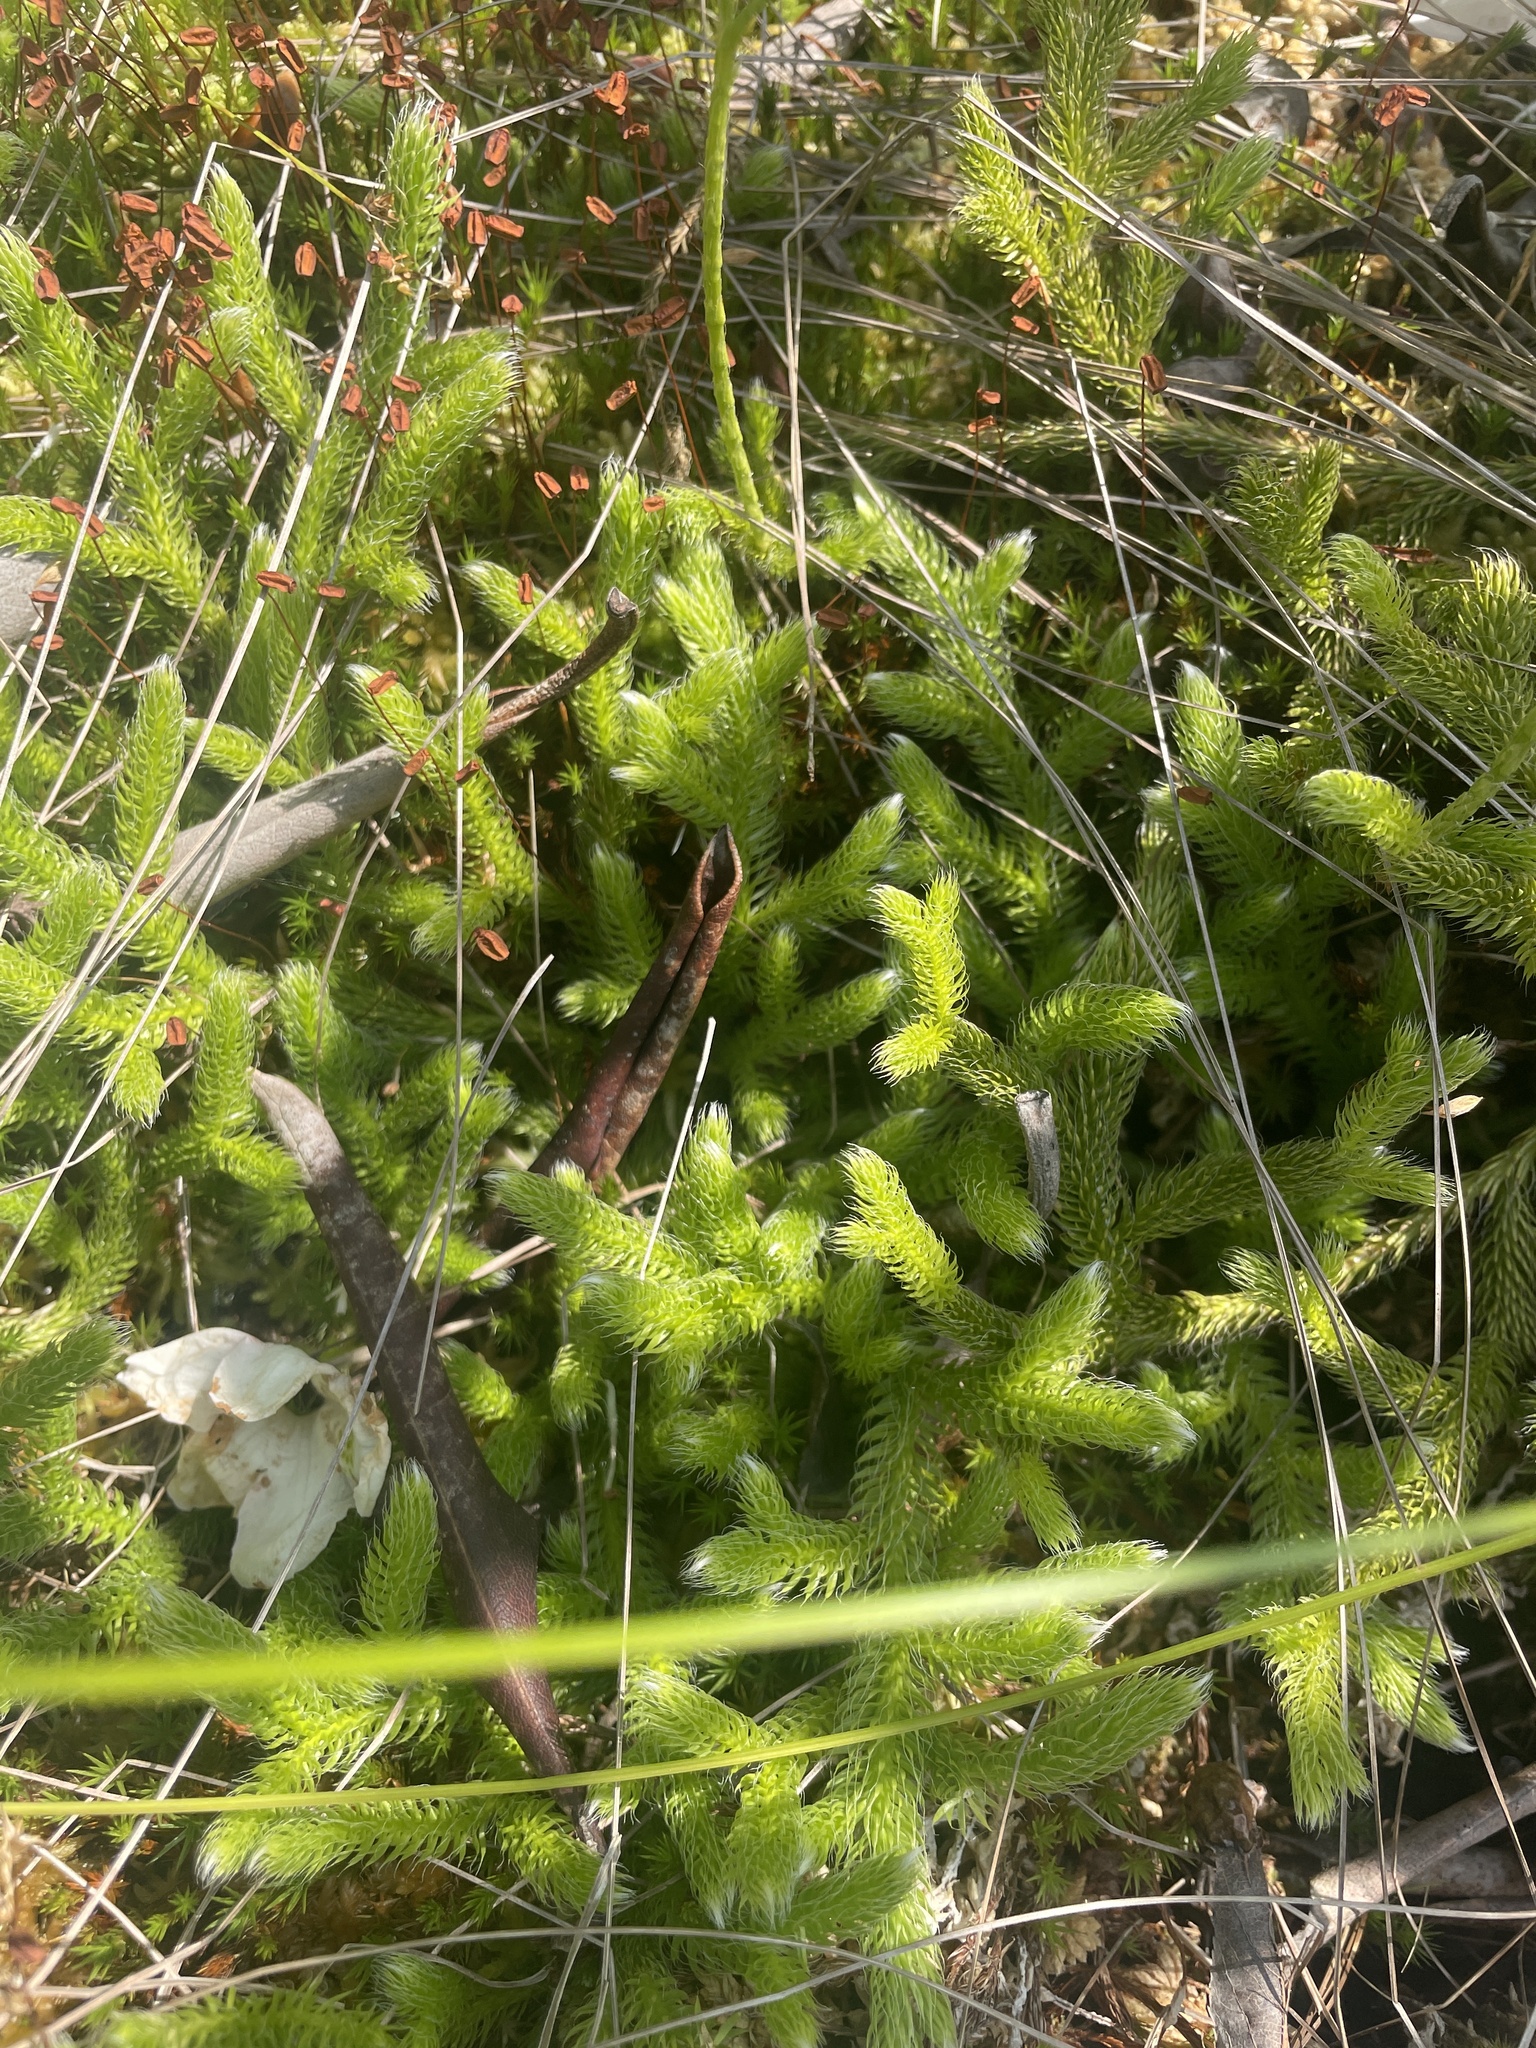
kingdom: Plantae
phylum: Tracheophyta
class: Lycopodiopsida
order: Lycopodiales
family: Lycopodiaceae
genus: Lycopodium
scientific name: Lycopodium clavatum
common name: Stag's-horn clubmoss
